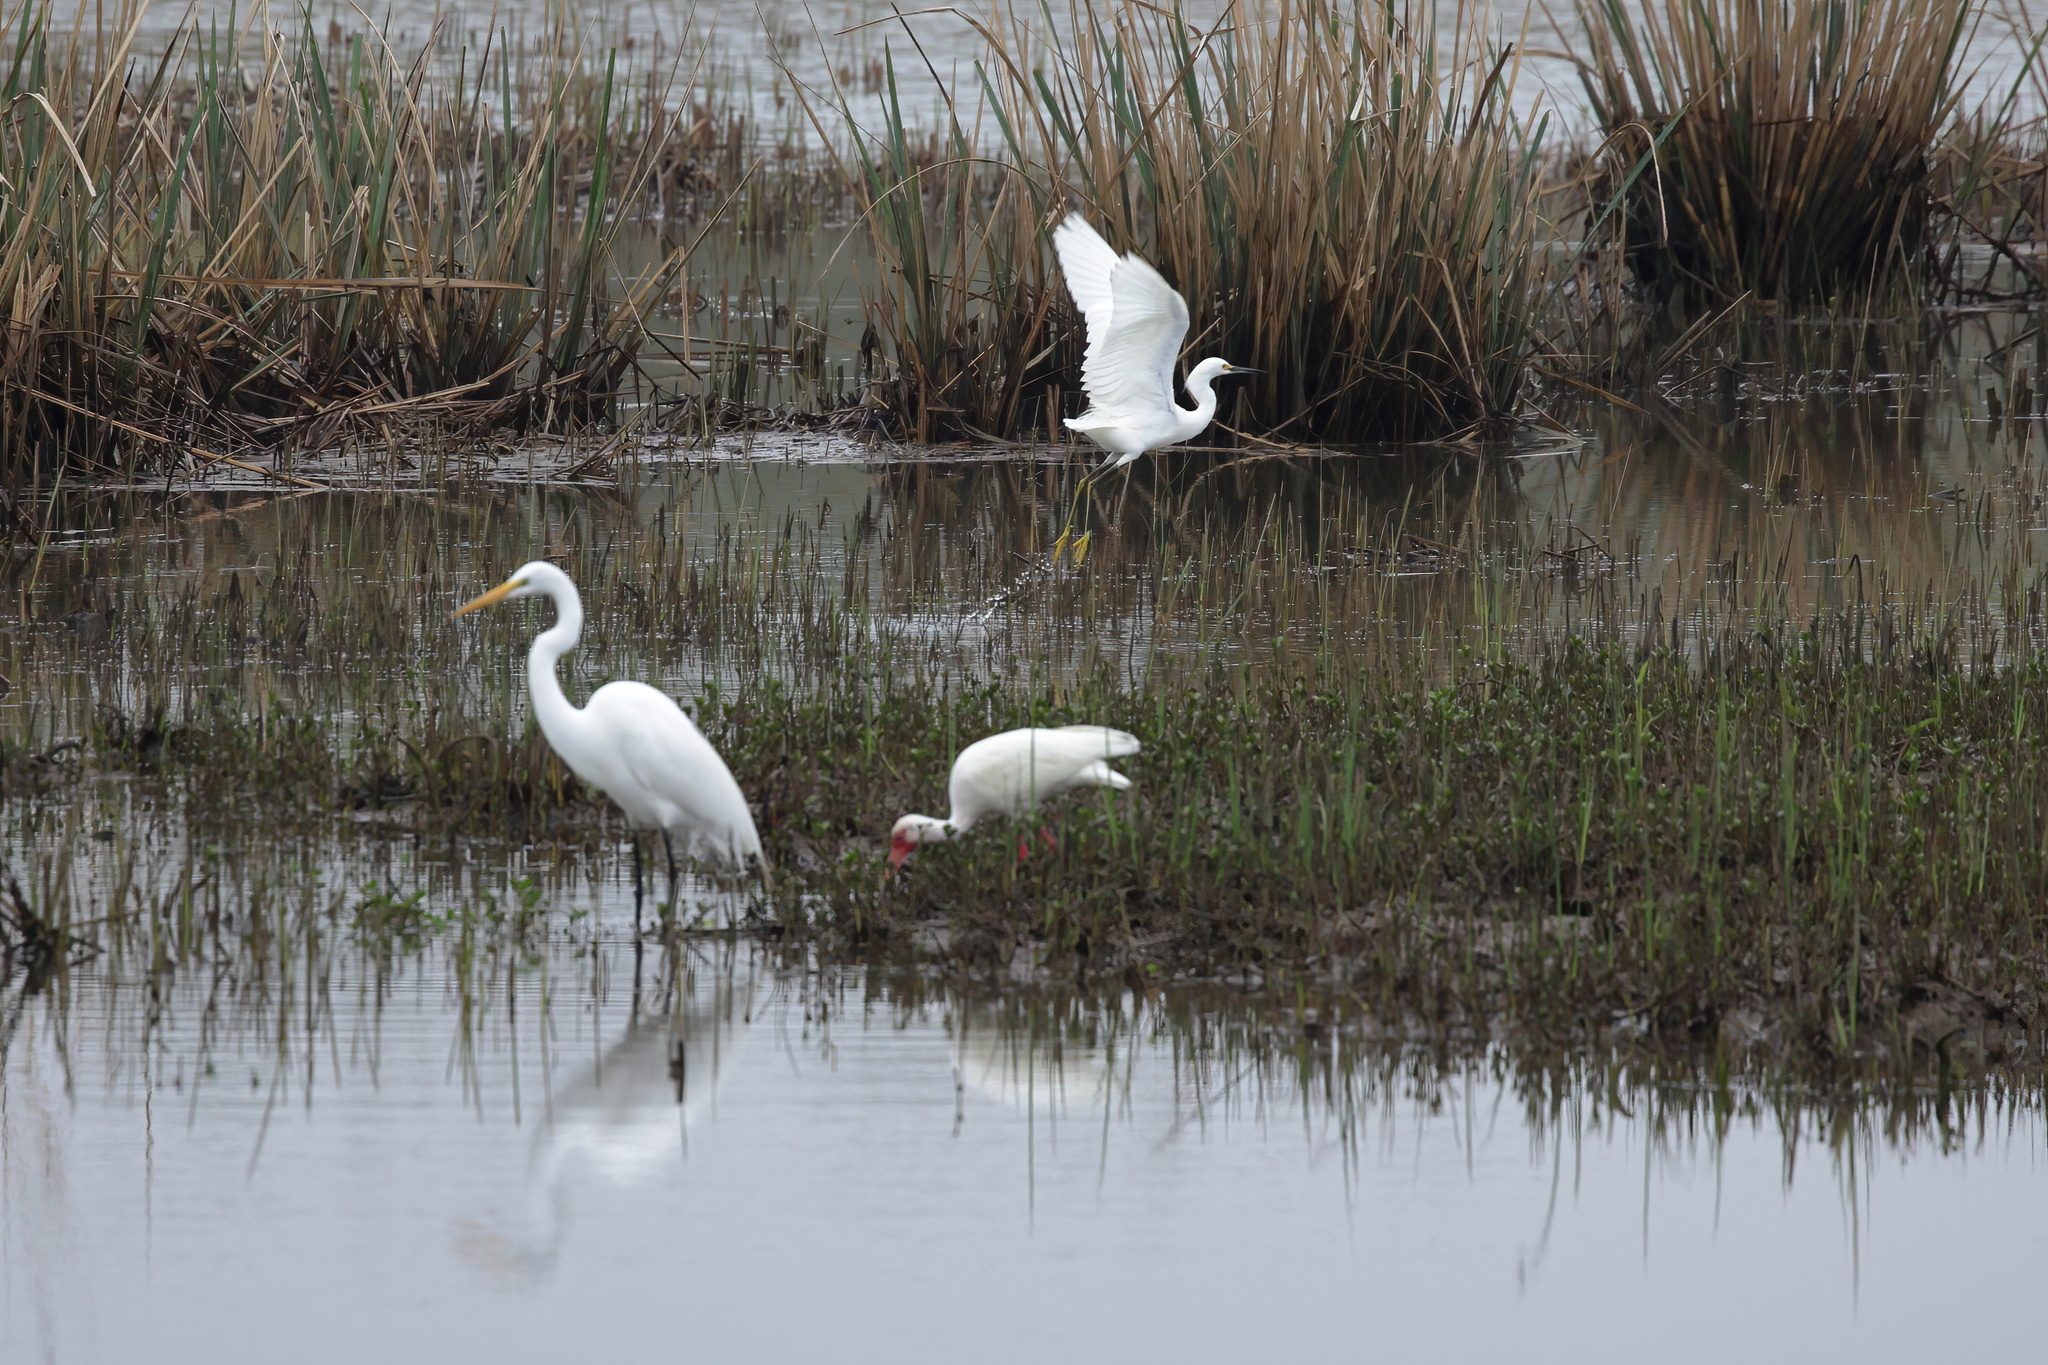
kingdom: Animalia
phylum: Chordata
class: Aves
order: Pelecaniformes
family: Ardeidae
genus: Egretta
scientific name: Egretta thula
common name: Snowy egret
